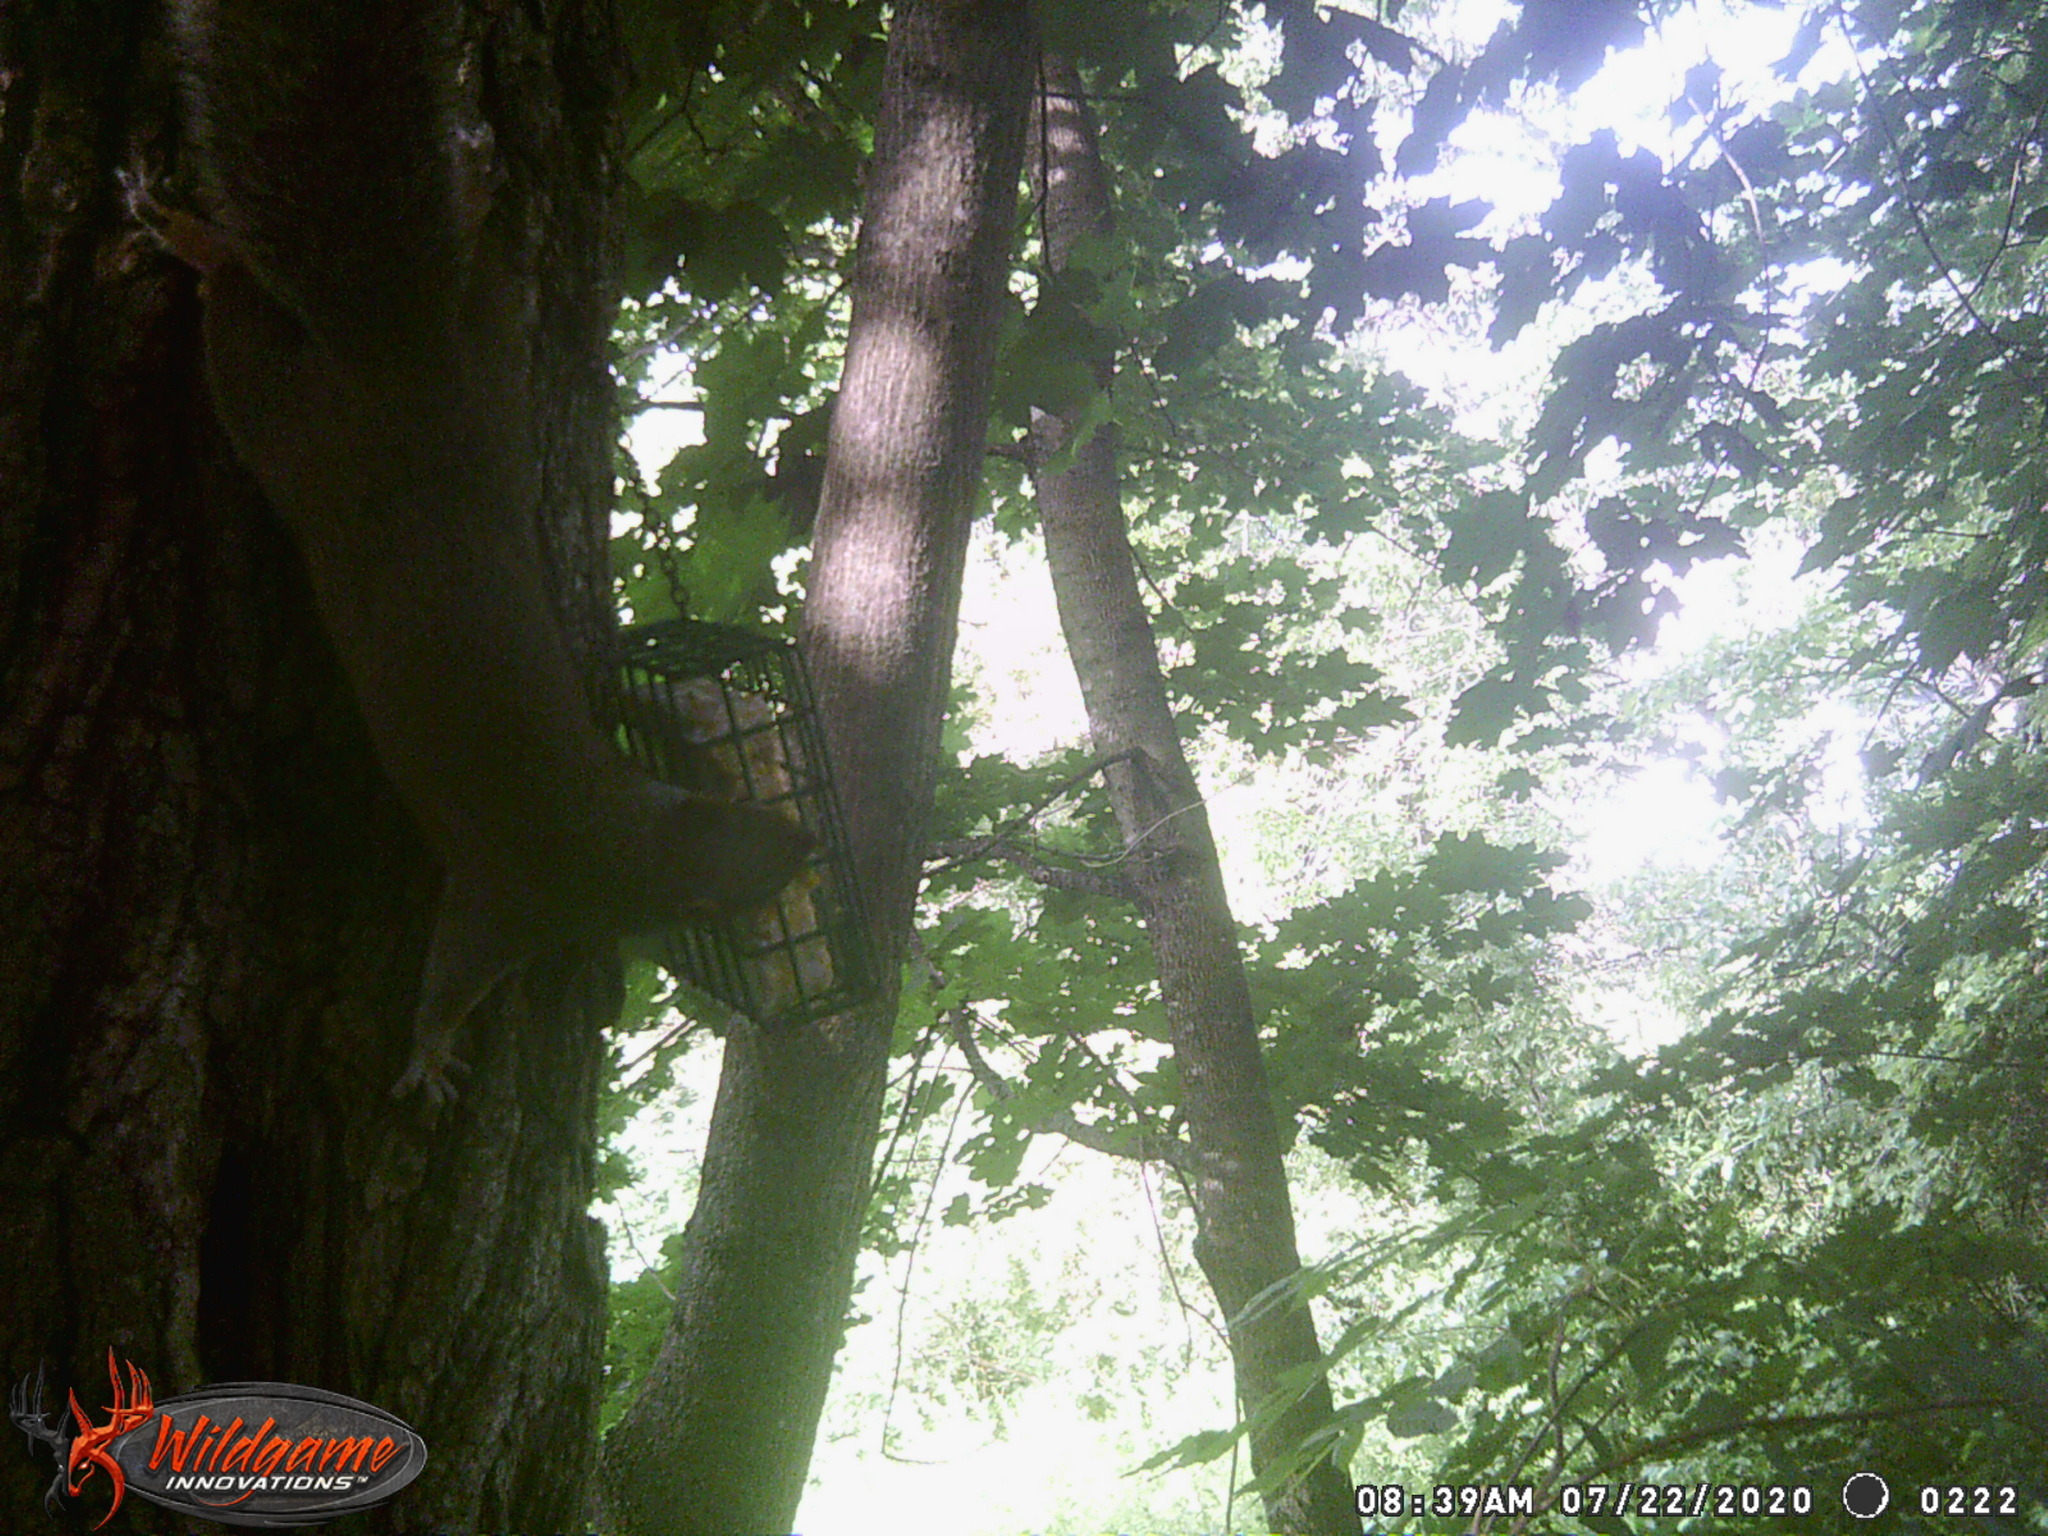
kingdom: Animalia
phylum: Chordata
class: Mammalia
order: Rodentia
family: Sciuridae
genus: Sciurus
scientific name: Sciurus carolinensis
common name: Eastern gray squirrel
